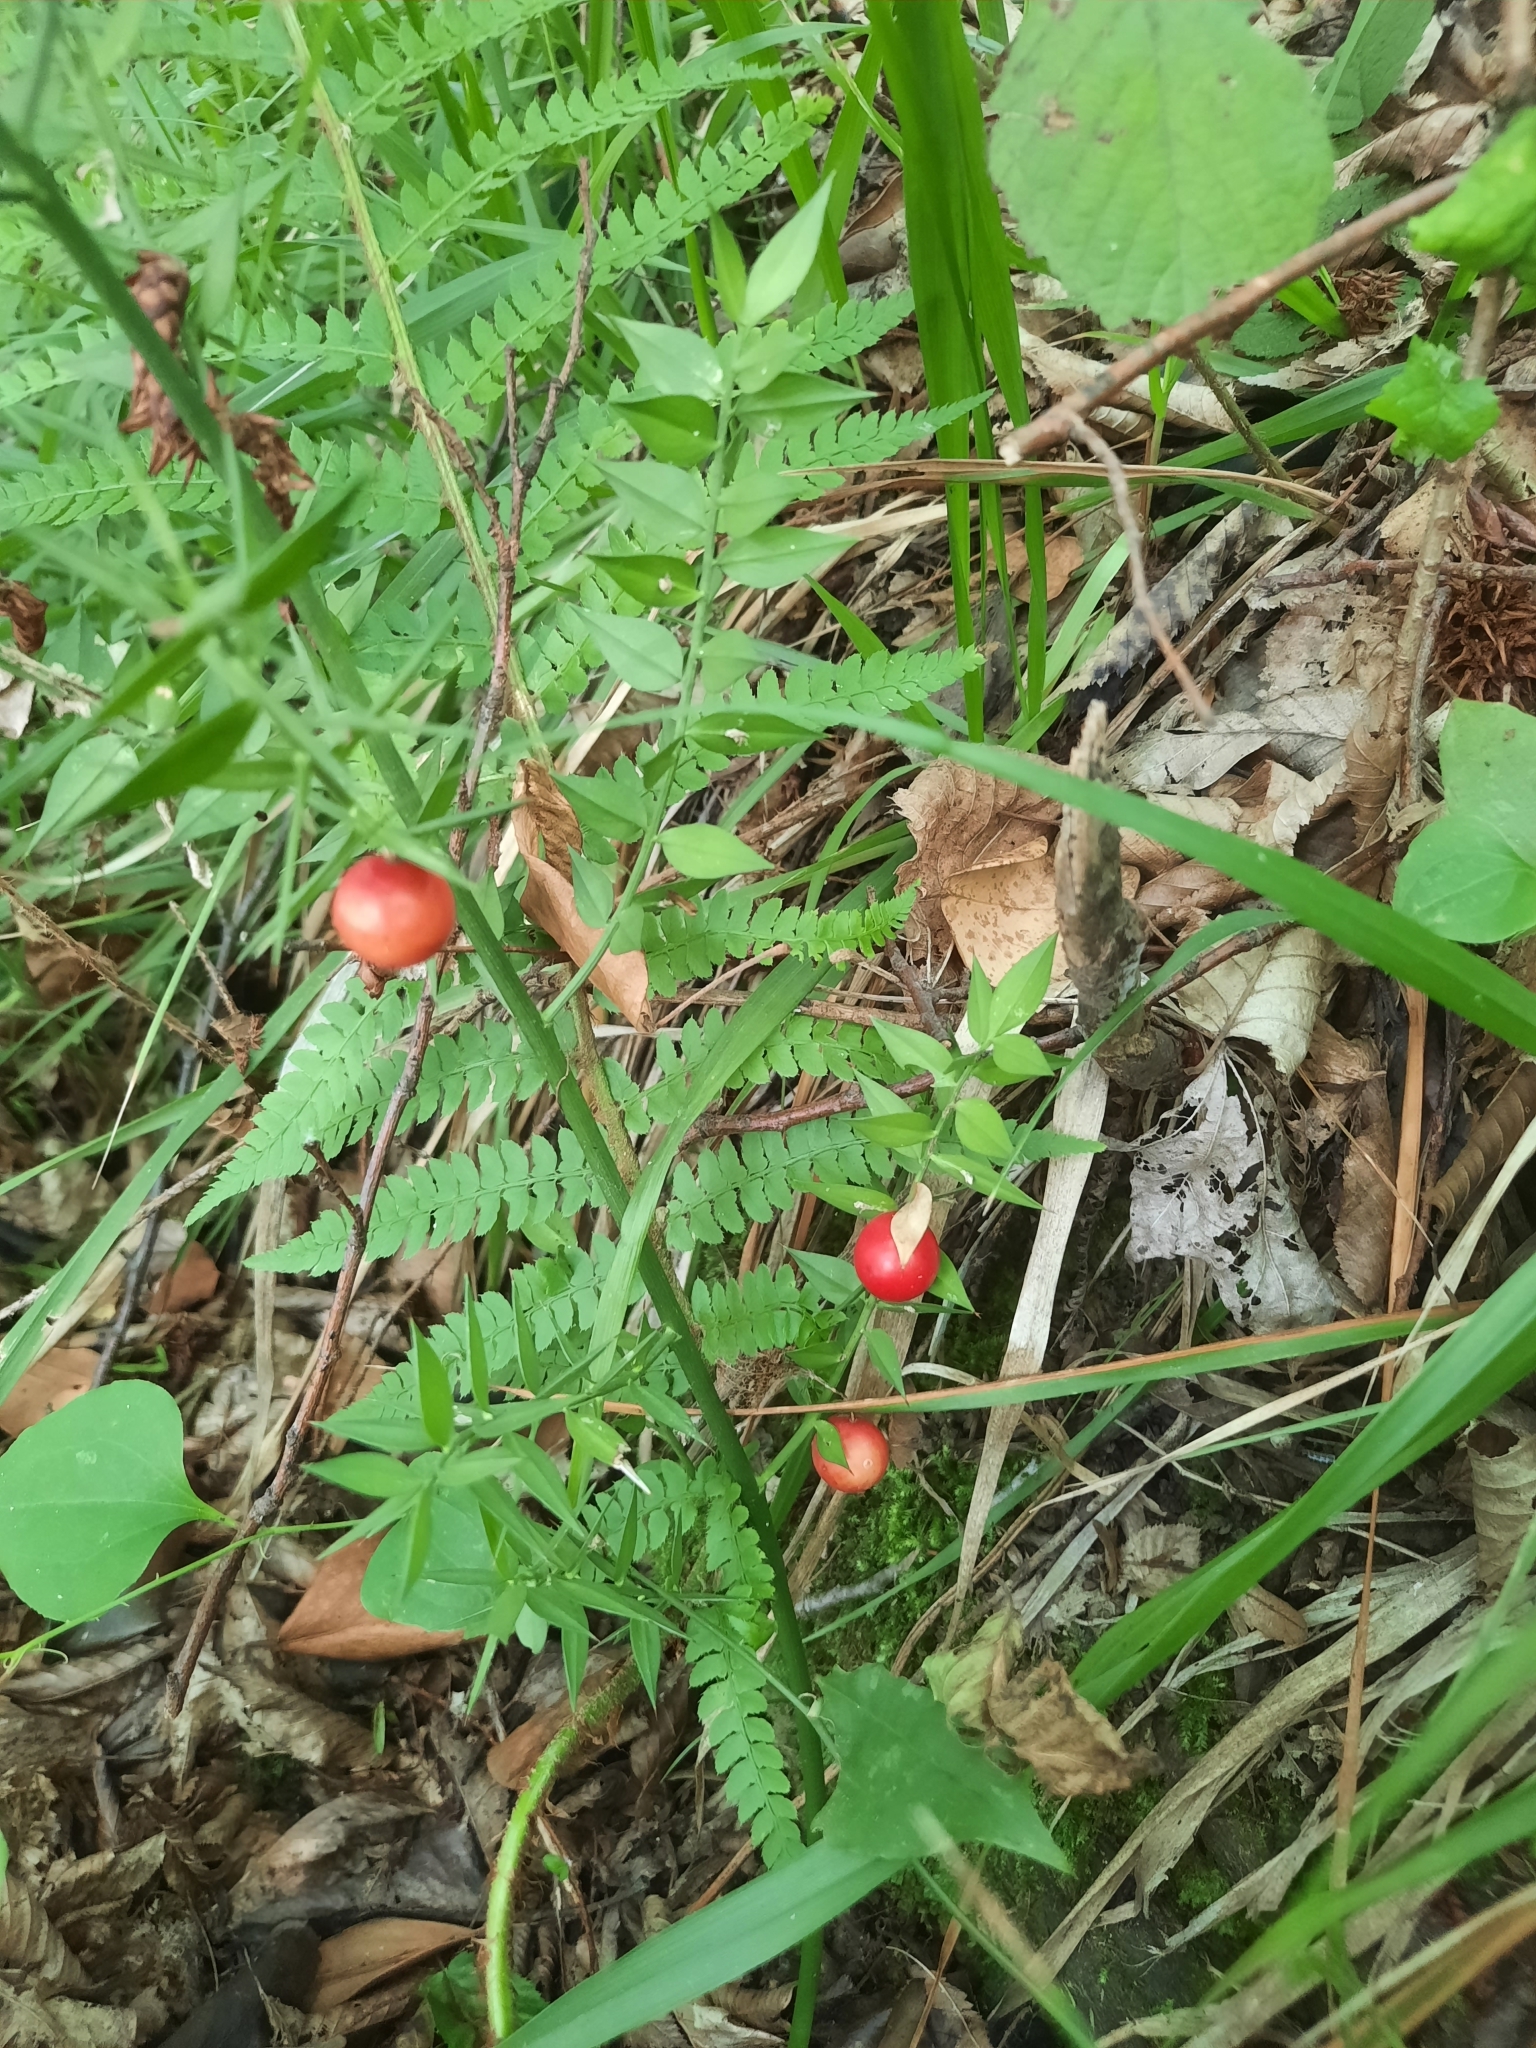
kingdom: Plantae
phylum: Tracheophyta
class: Liliopsida
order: Asparagales
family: Asparagaceae
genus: Ruscus
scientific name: Ruscus aculeatus
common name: Butcher's-broom
